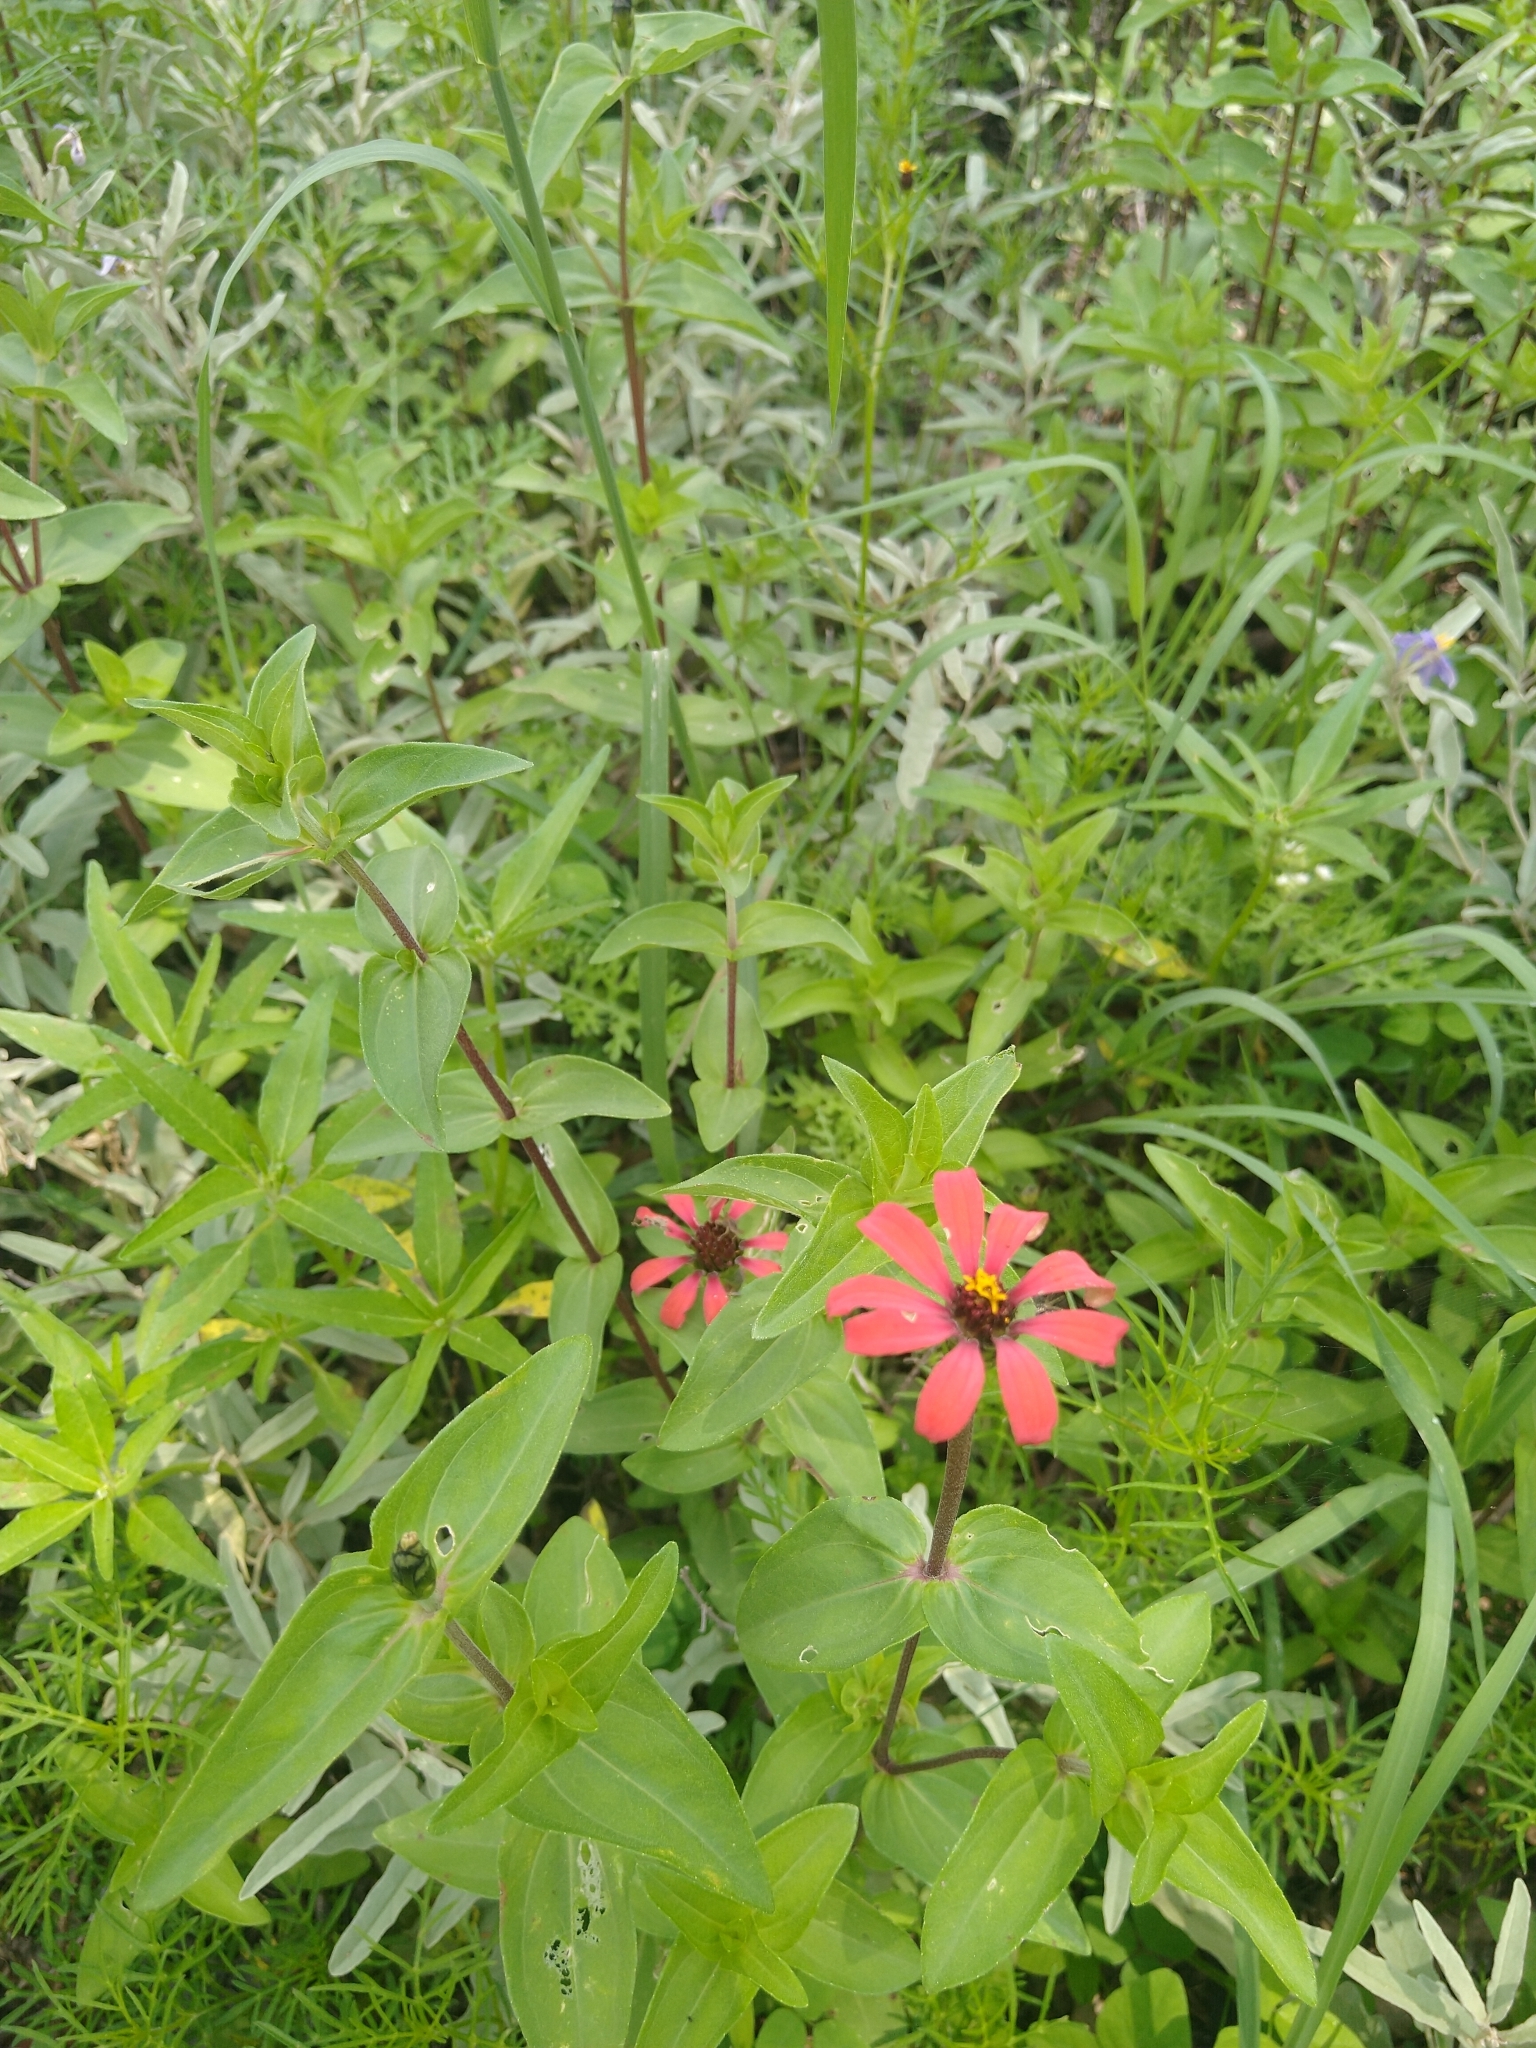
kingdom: Plantae
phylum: Tracheophyta
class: Magnoliopsida
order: Asterales
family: Asteraceae
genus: Zinnia
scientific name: Zinnia peruviana
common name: Peruvian zinnia
